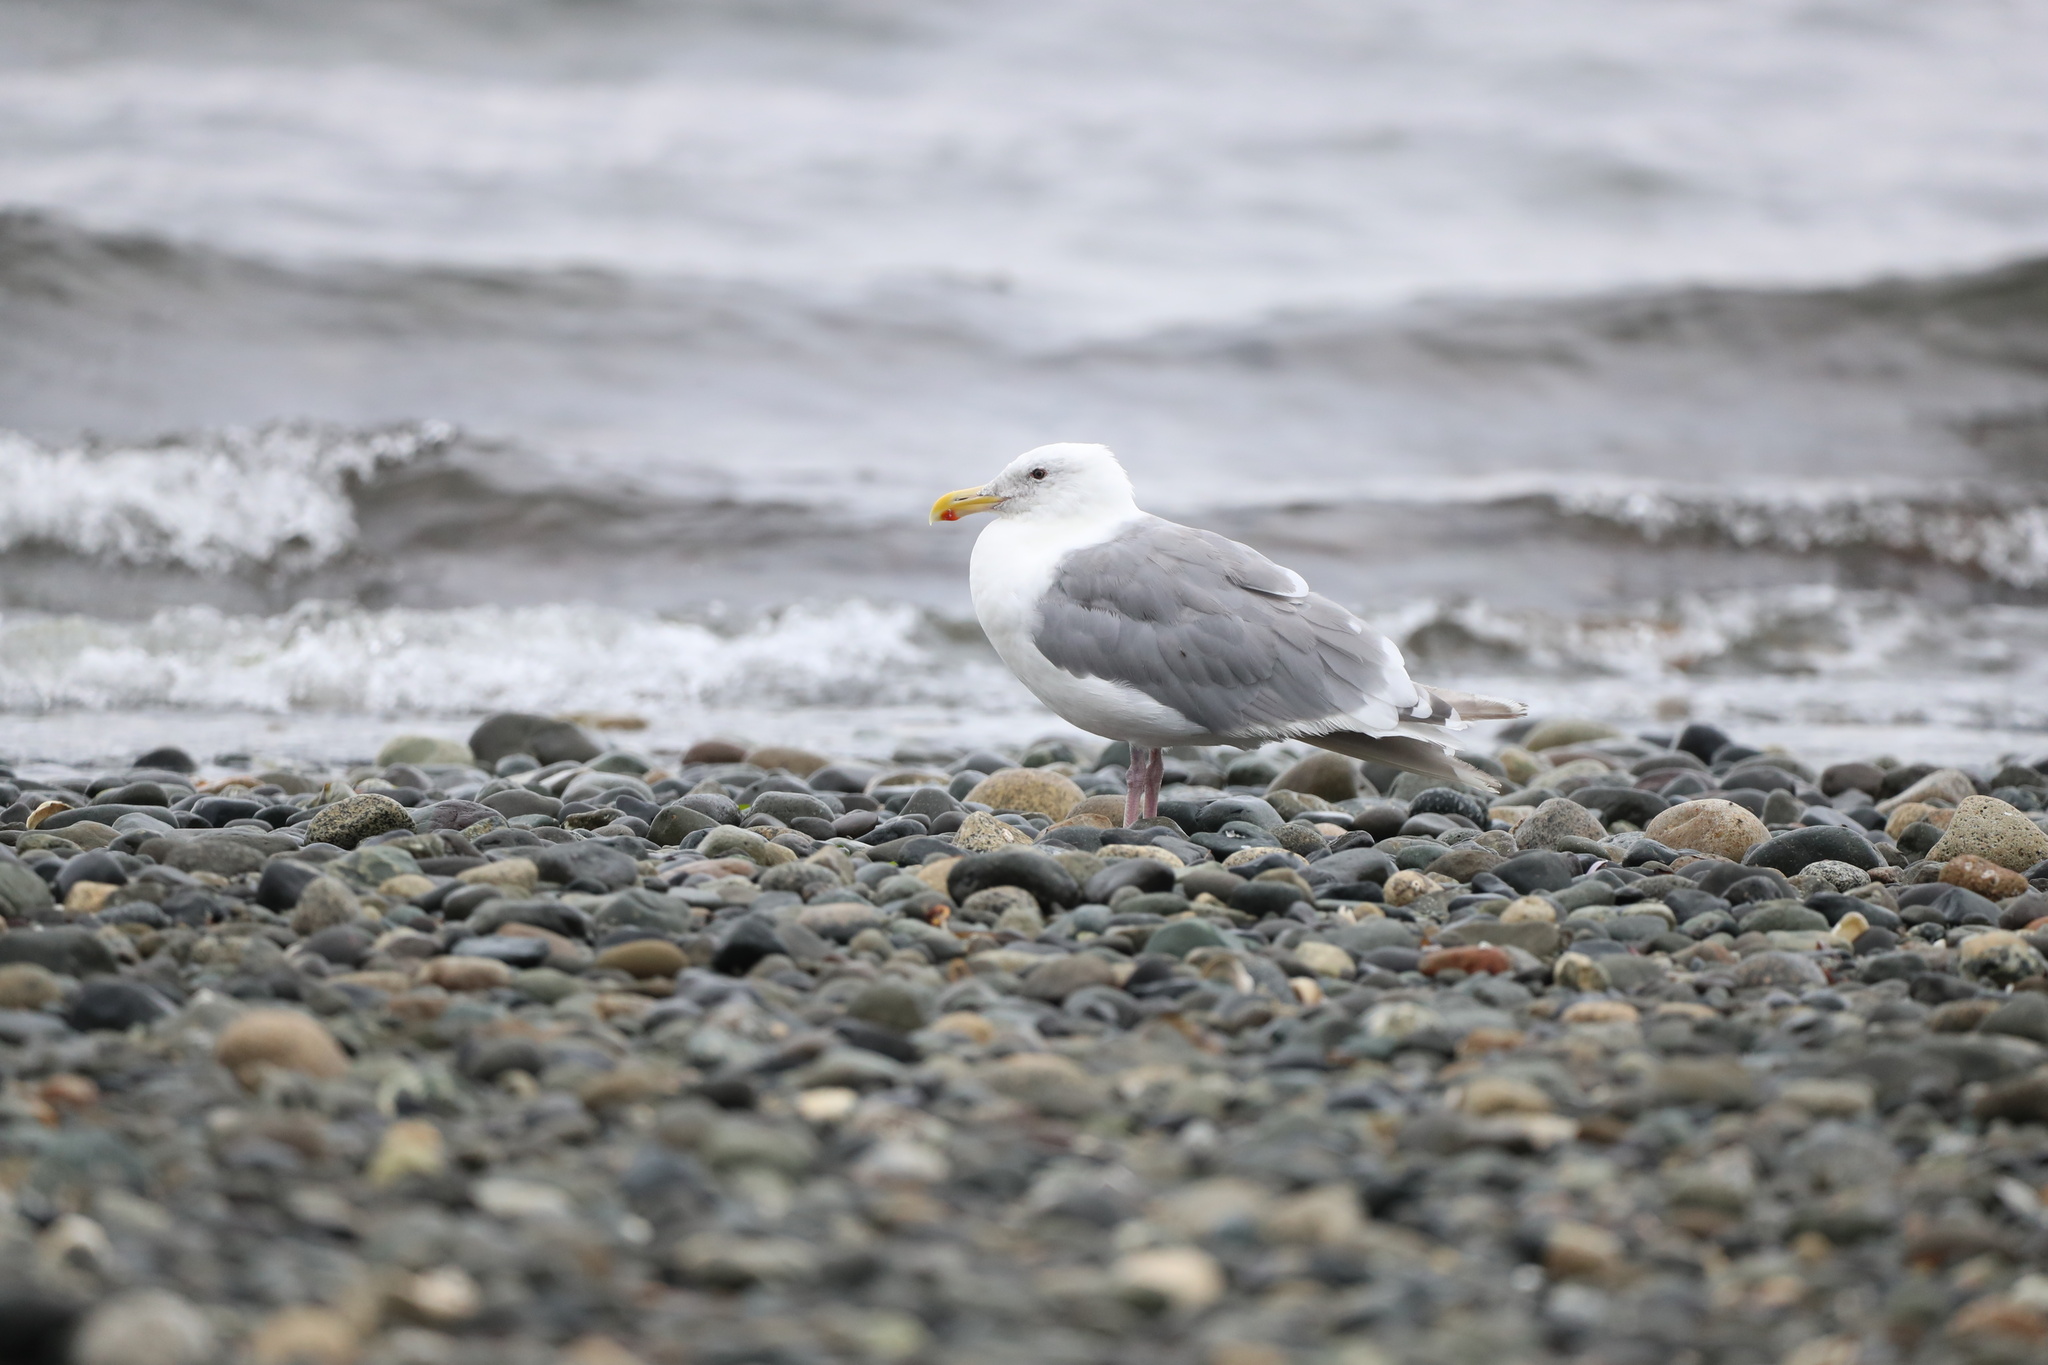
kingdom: Animalia
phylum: Chordata
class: Aves
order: Charadriiformes
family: Laridae
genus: Larus
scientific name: Larus
